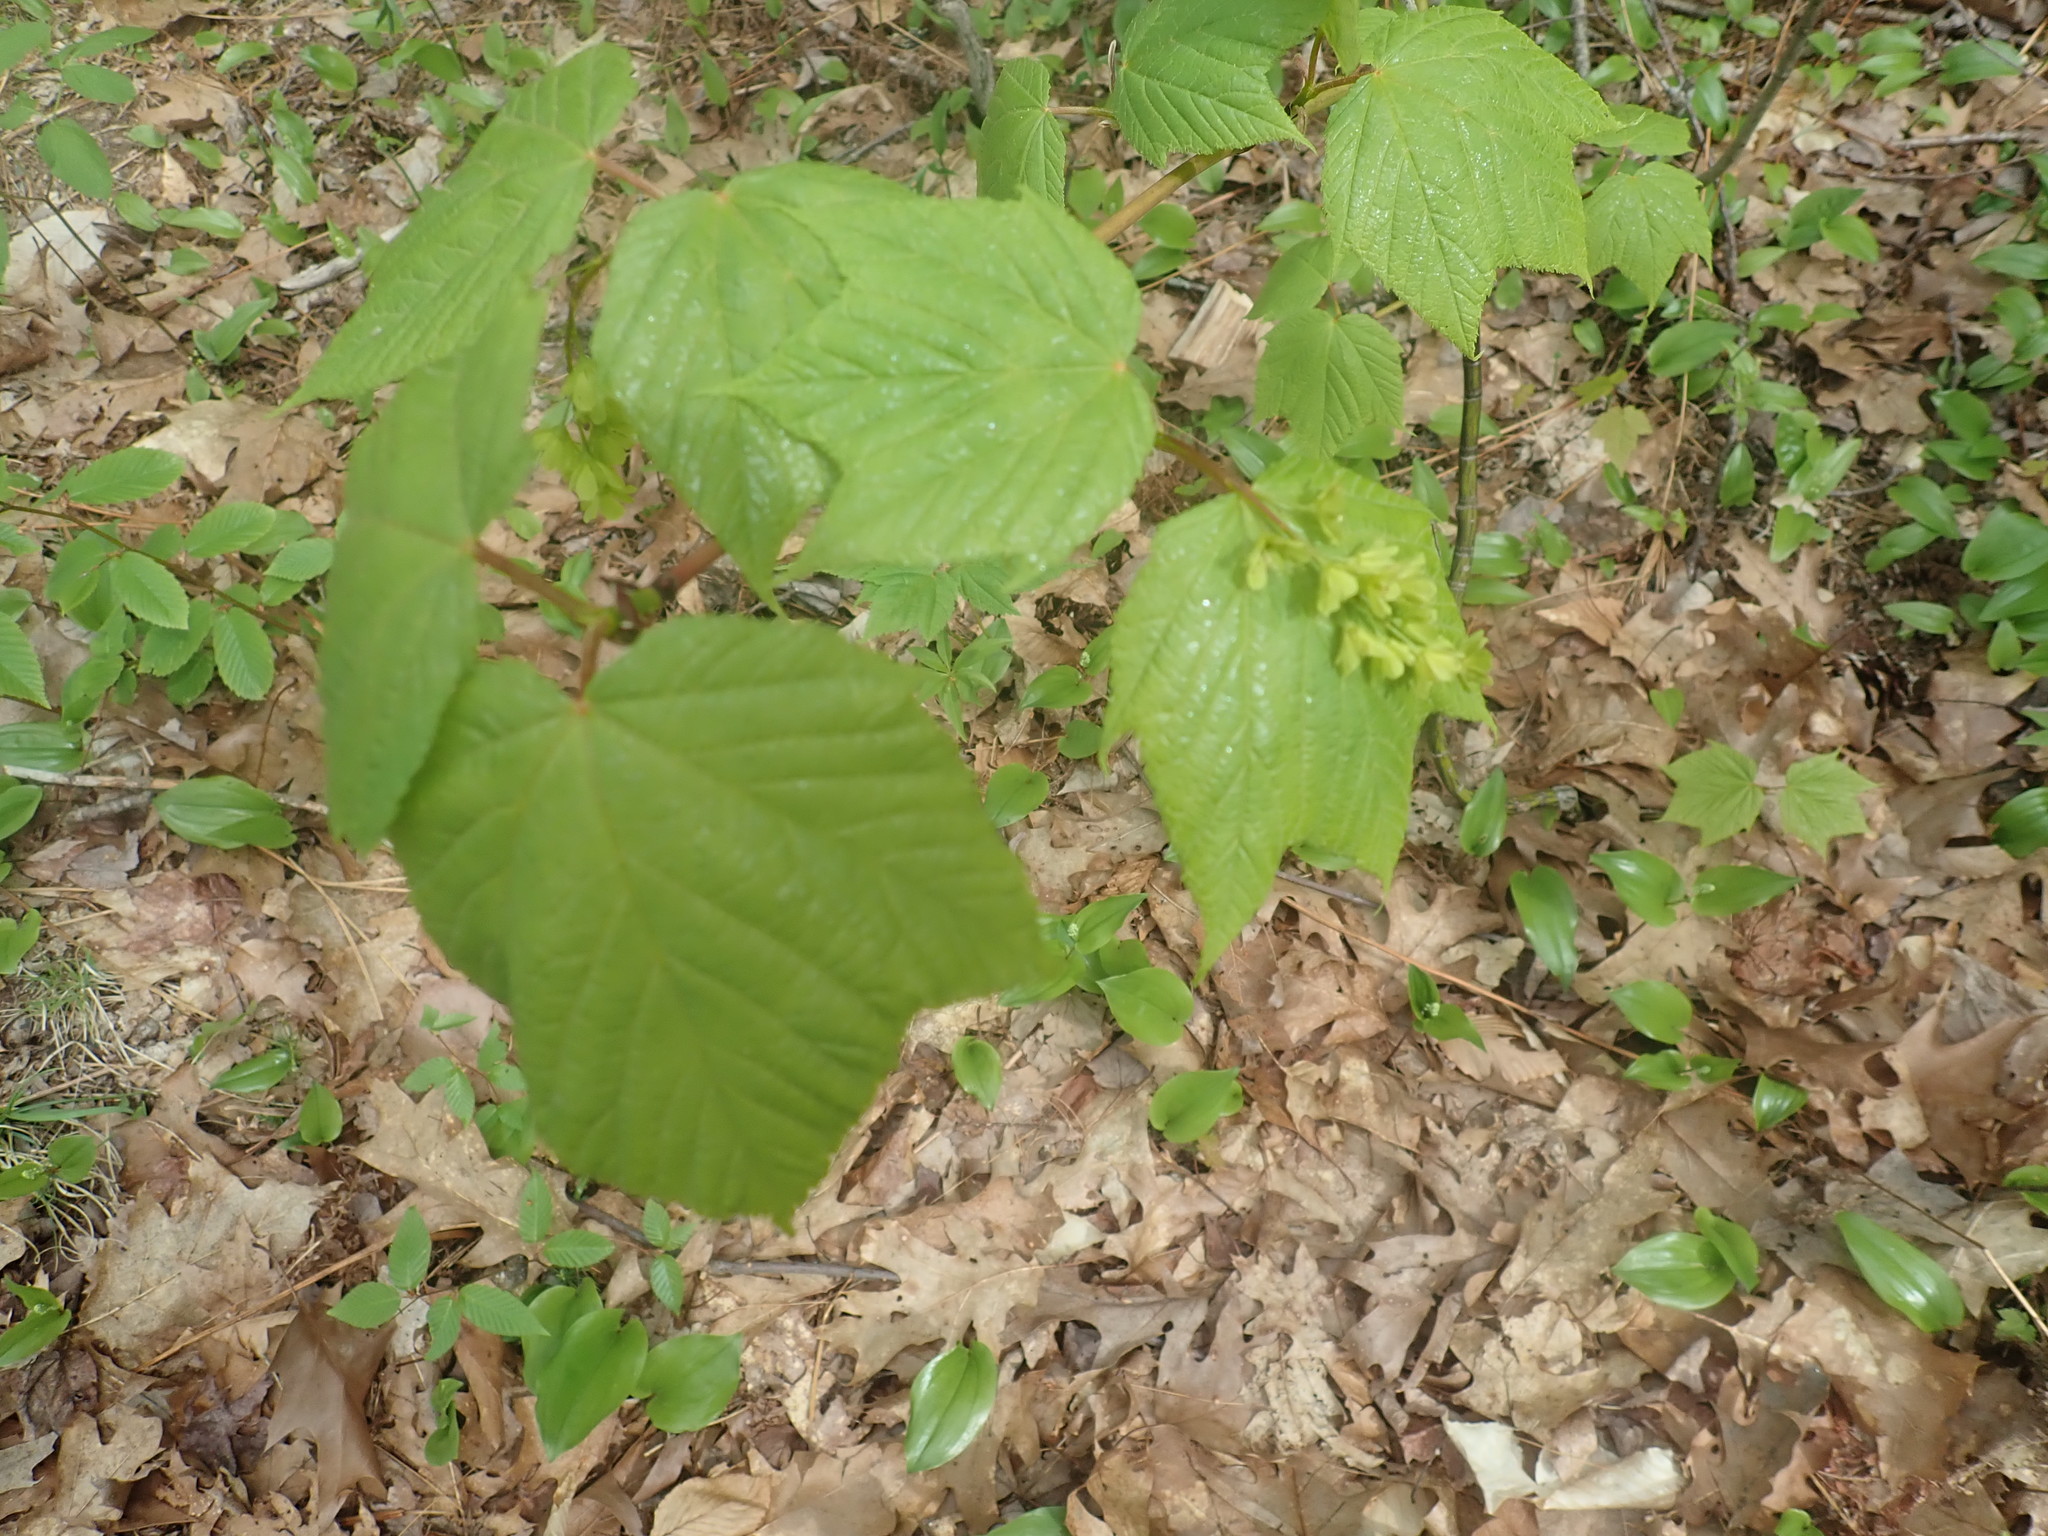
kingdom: Plantae
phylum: Tracheophyta
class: Magnoliopsida
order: Sapindales
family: Sapindaceae
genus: Acer
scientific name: Acer pensylvanicum
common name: Moosewood
